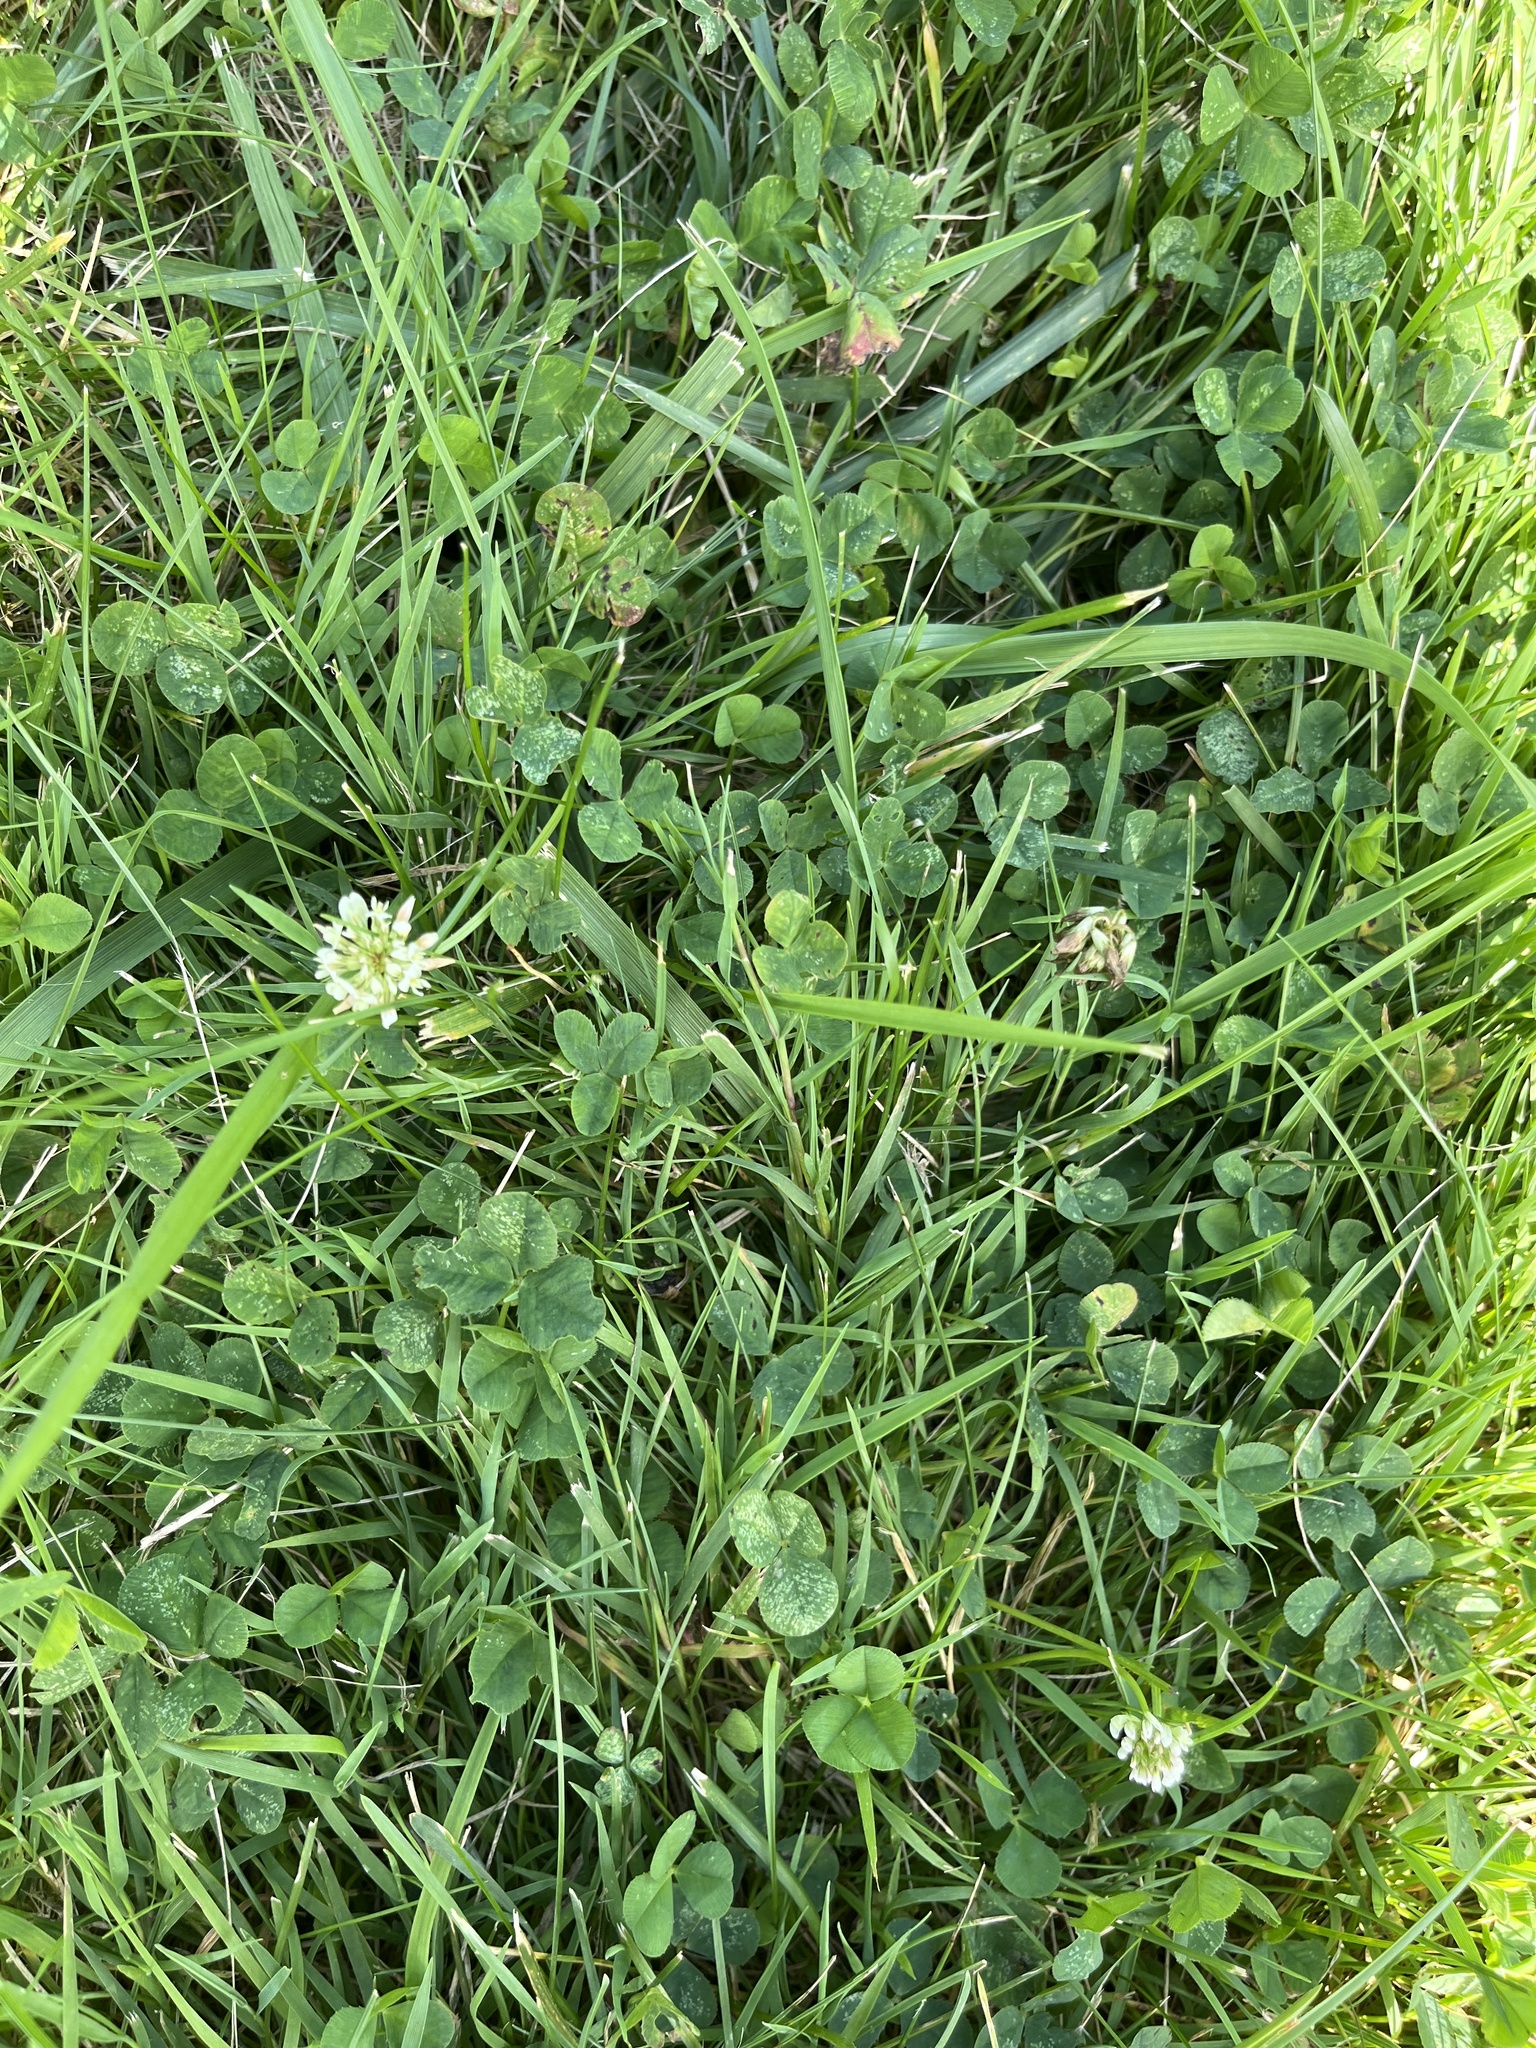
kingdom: Plantae
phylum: Tracheophyta
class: Magnoliopsida
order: Fabales
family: Fabaceae
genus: Trifolium
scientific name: Trifolium repens
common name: White clover
